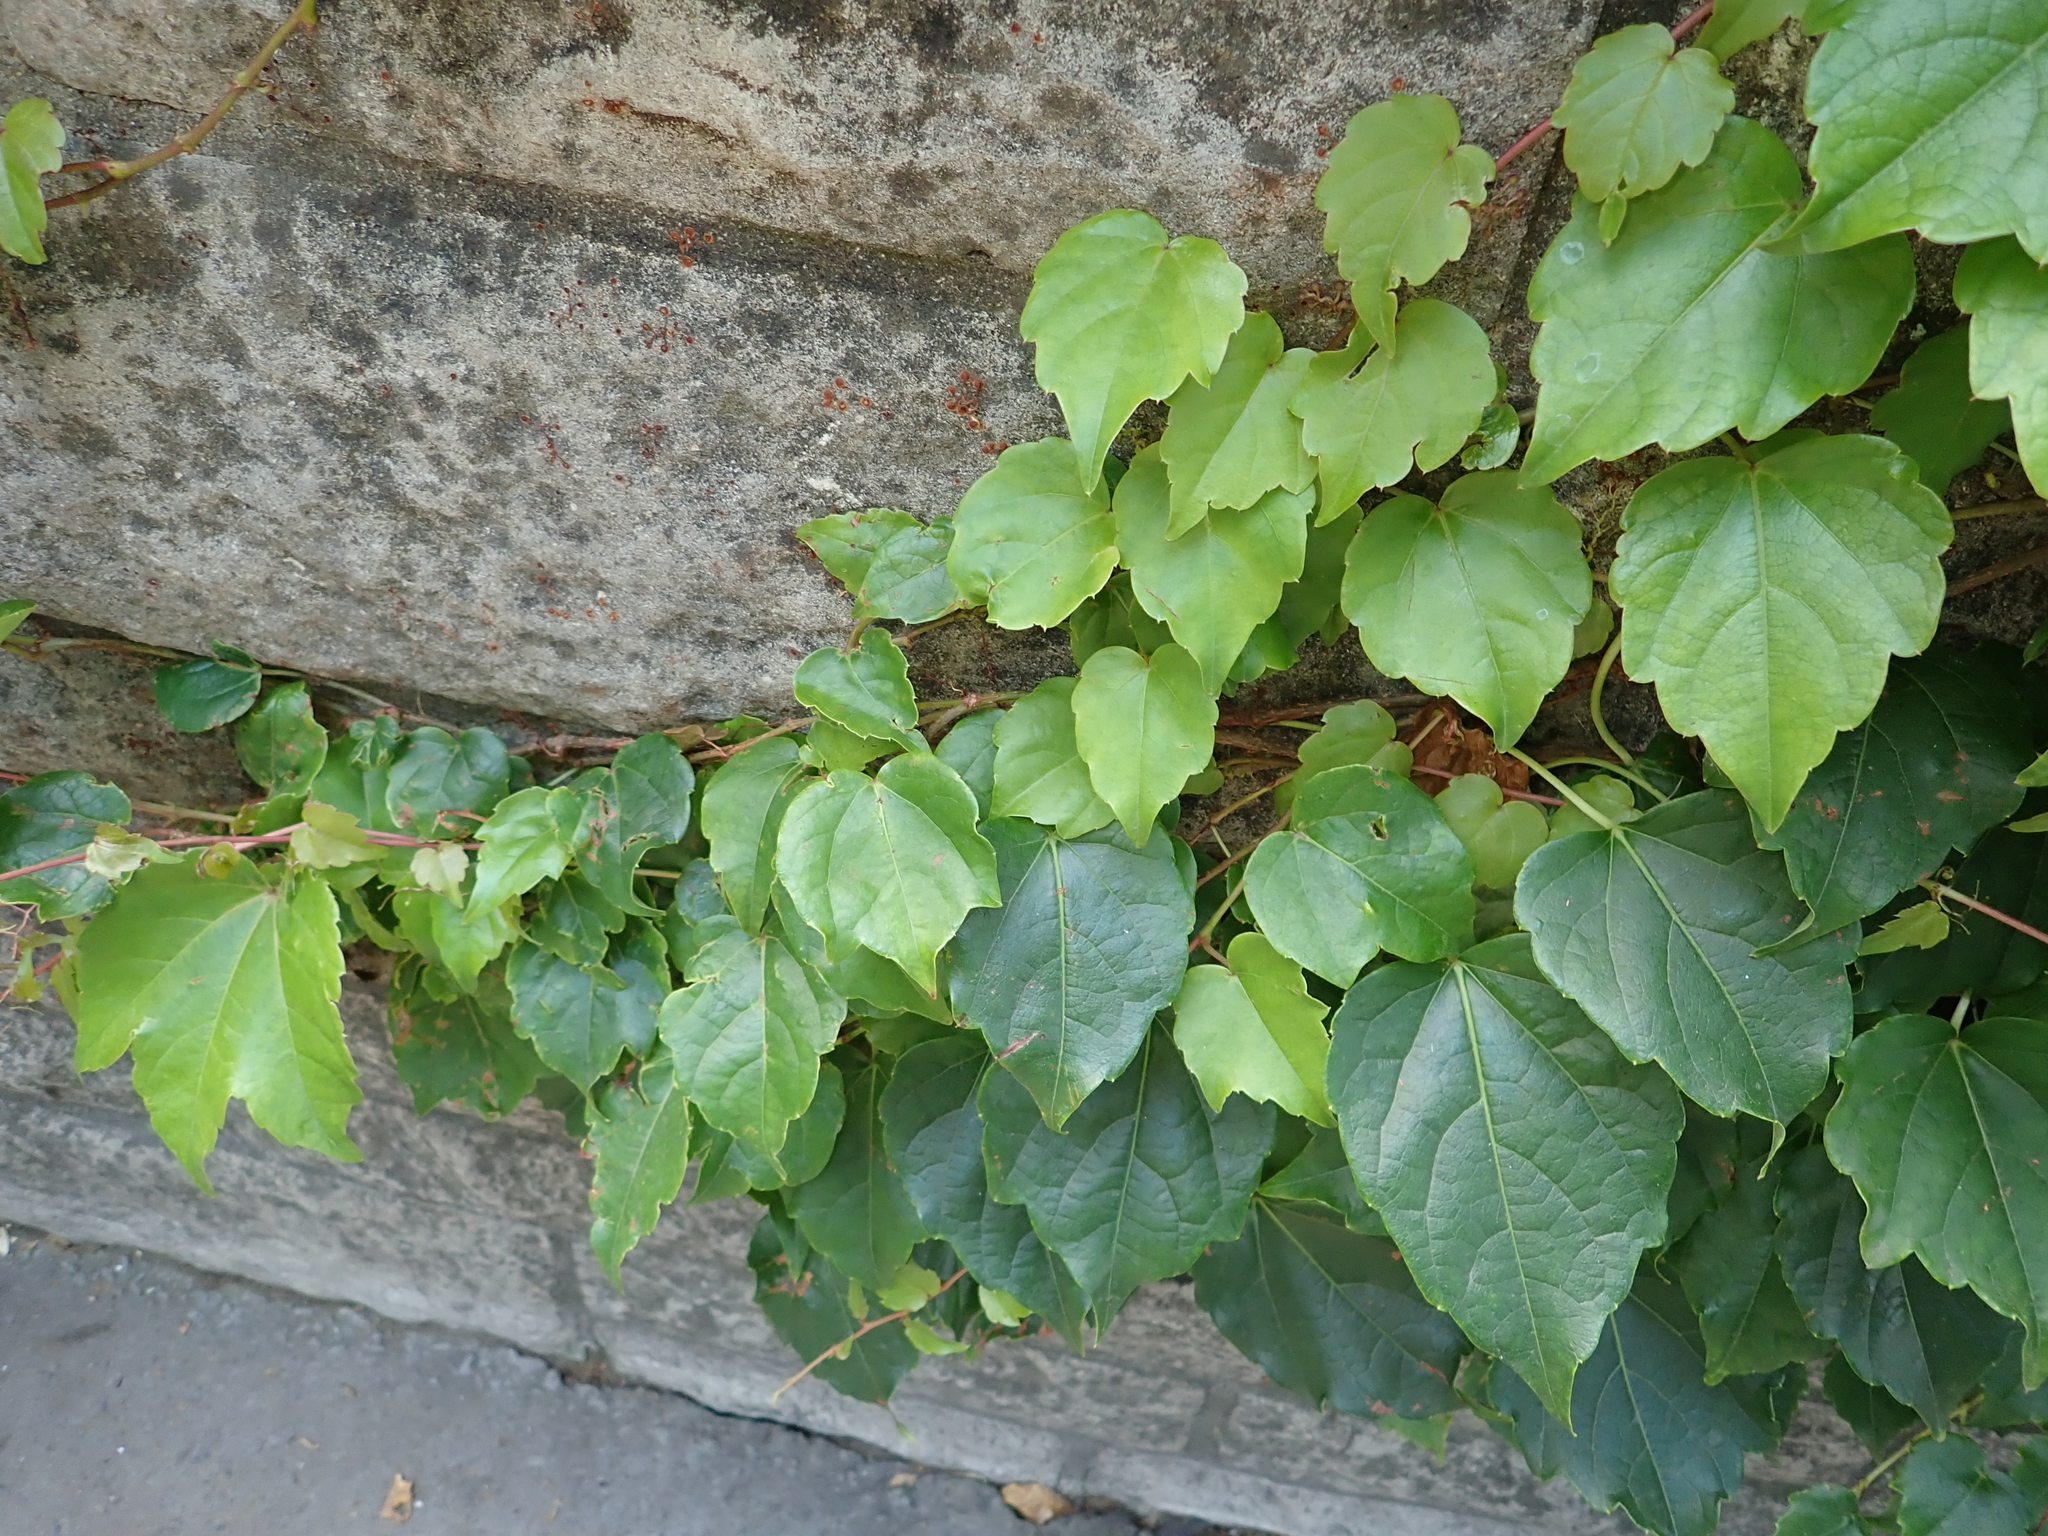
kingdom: Plantae
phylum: Tracheophyta
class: Magnoliopsida
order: Vitales
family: Vitaceae
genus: Parthenocissus
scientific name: Parthenocissus tricuspidata
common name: Boston ivy
